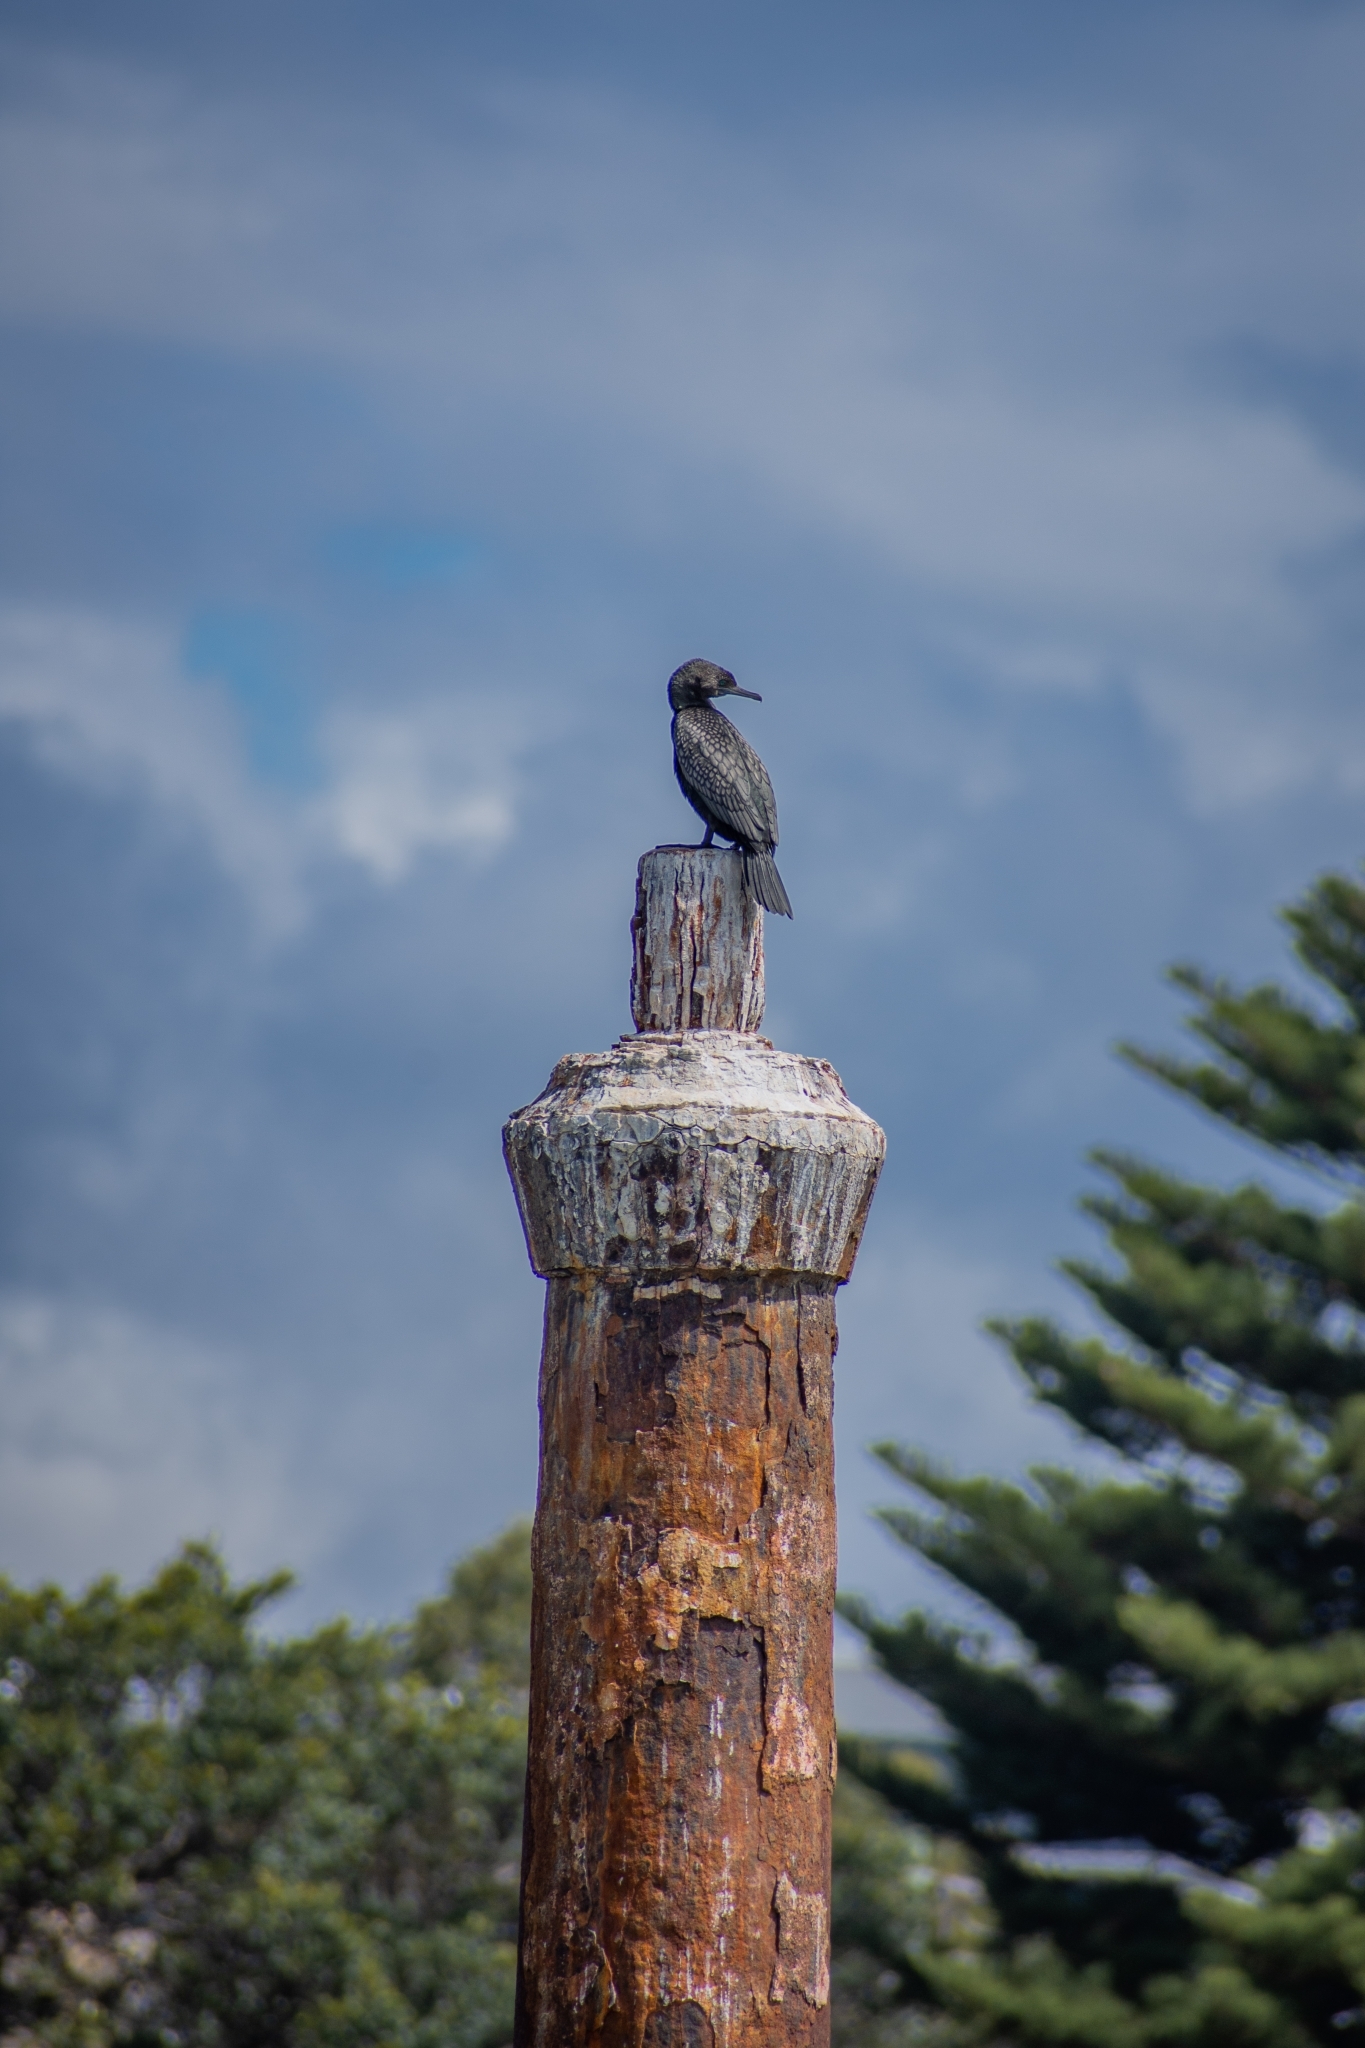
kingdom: Animalia
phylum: Chordata
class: Aves
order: Suliformes
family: Phalacrocoracidae
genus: Phalacrocorax
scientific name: Phalacrocorax sulcirostris
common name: Little black cormorant
